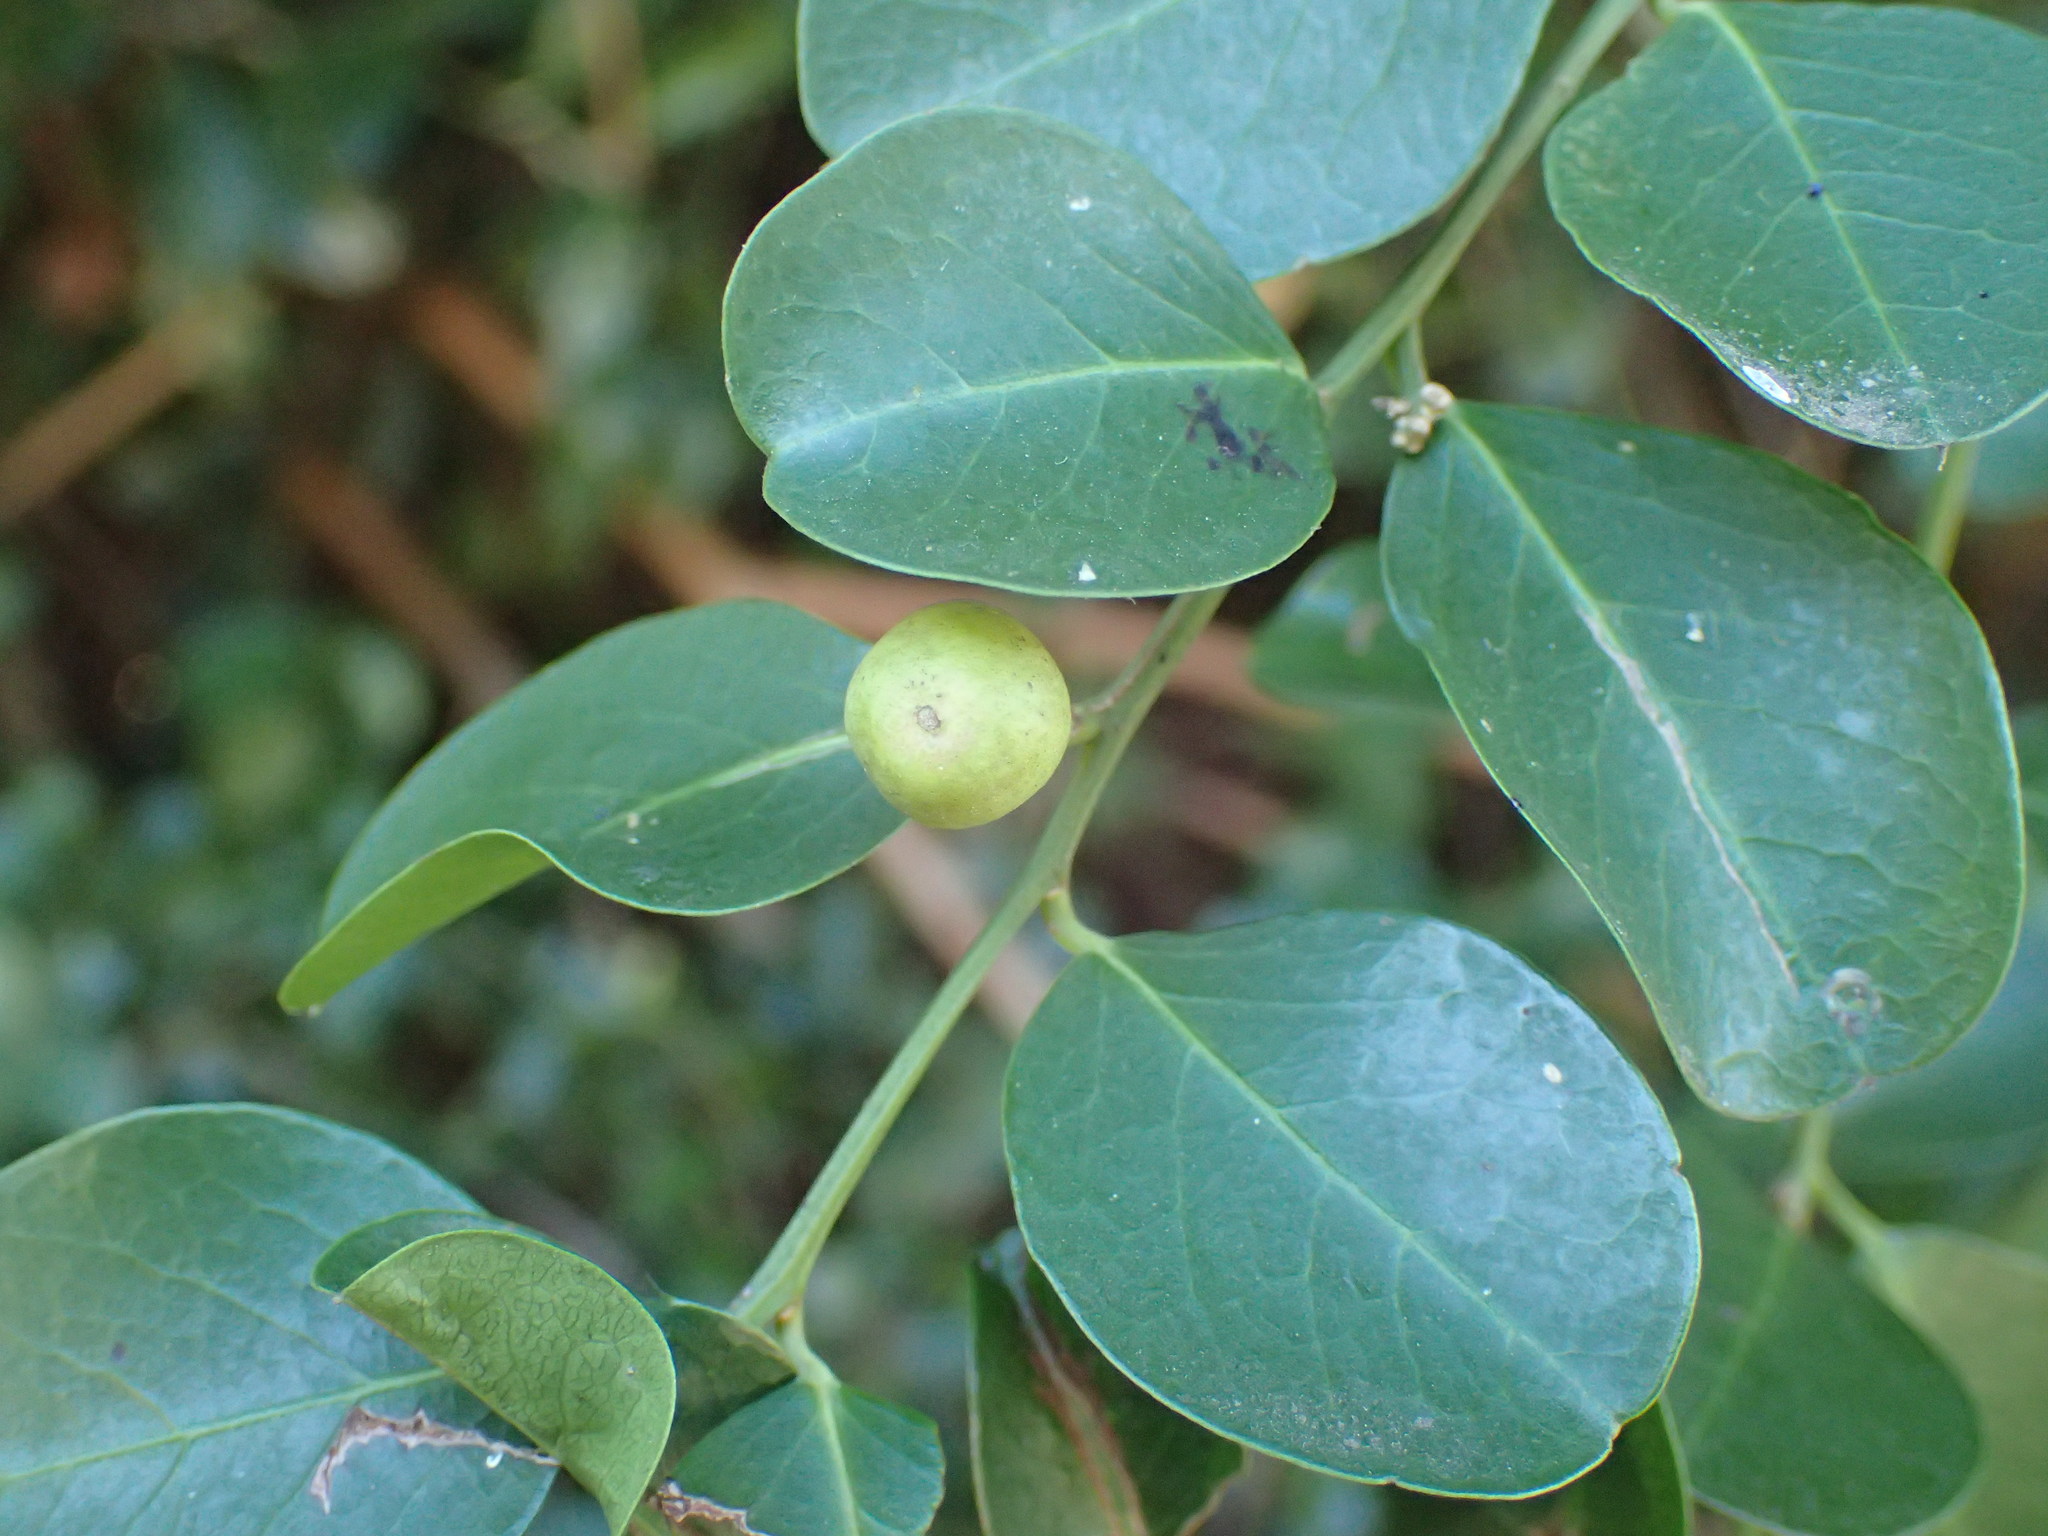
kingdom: Plantae
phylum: Tracheophyta
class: Magnoliopsida
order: Rosales
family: Rhamnaceae
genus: Scutia
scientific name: Scutia myrtina
